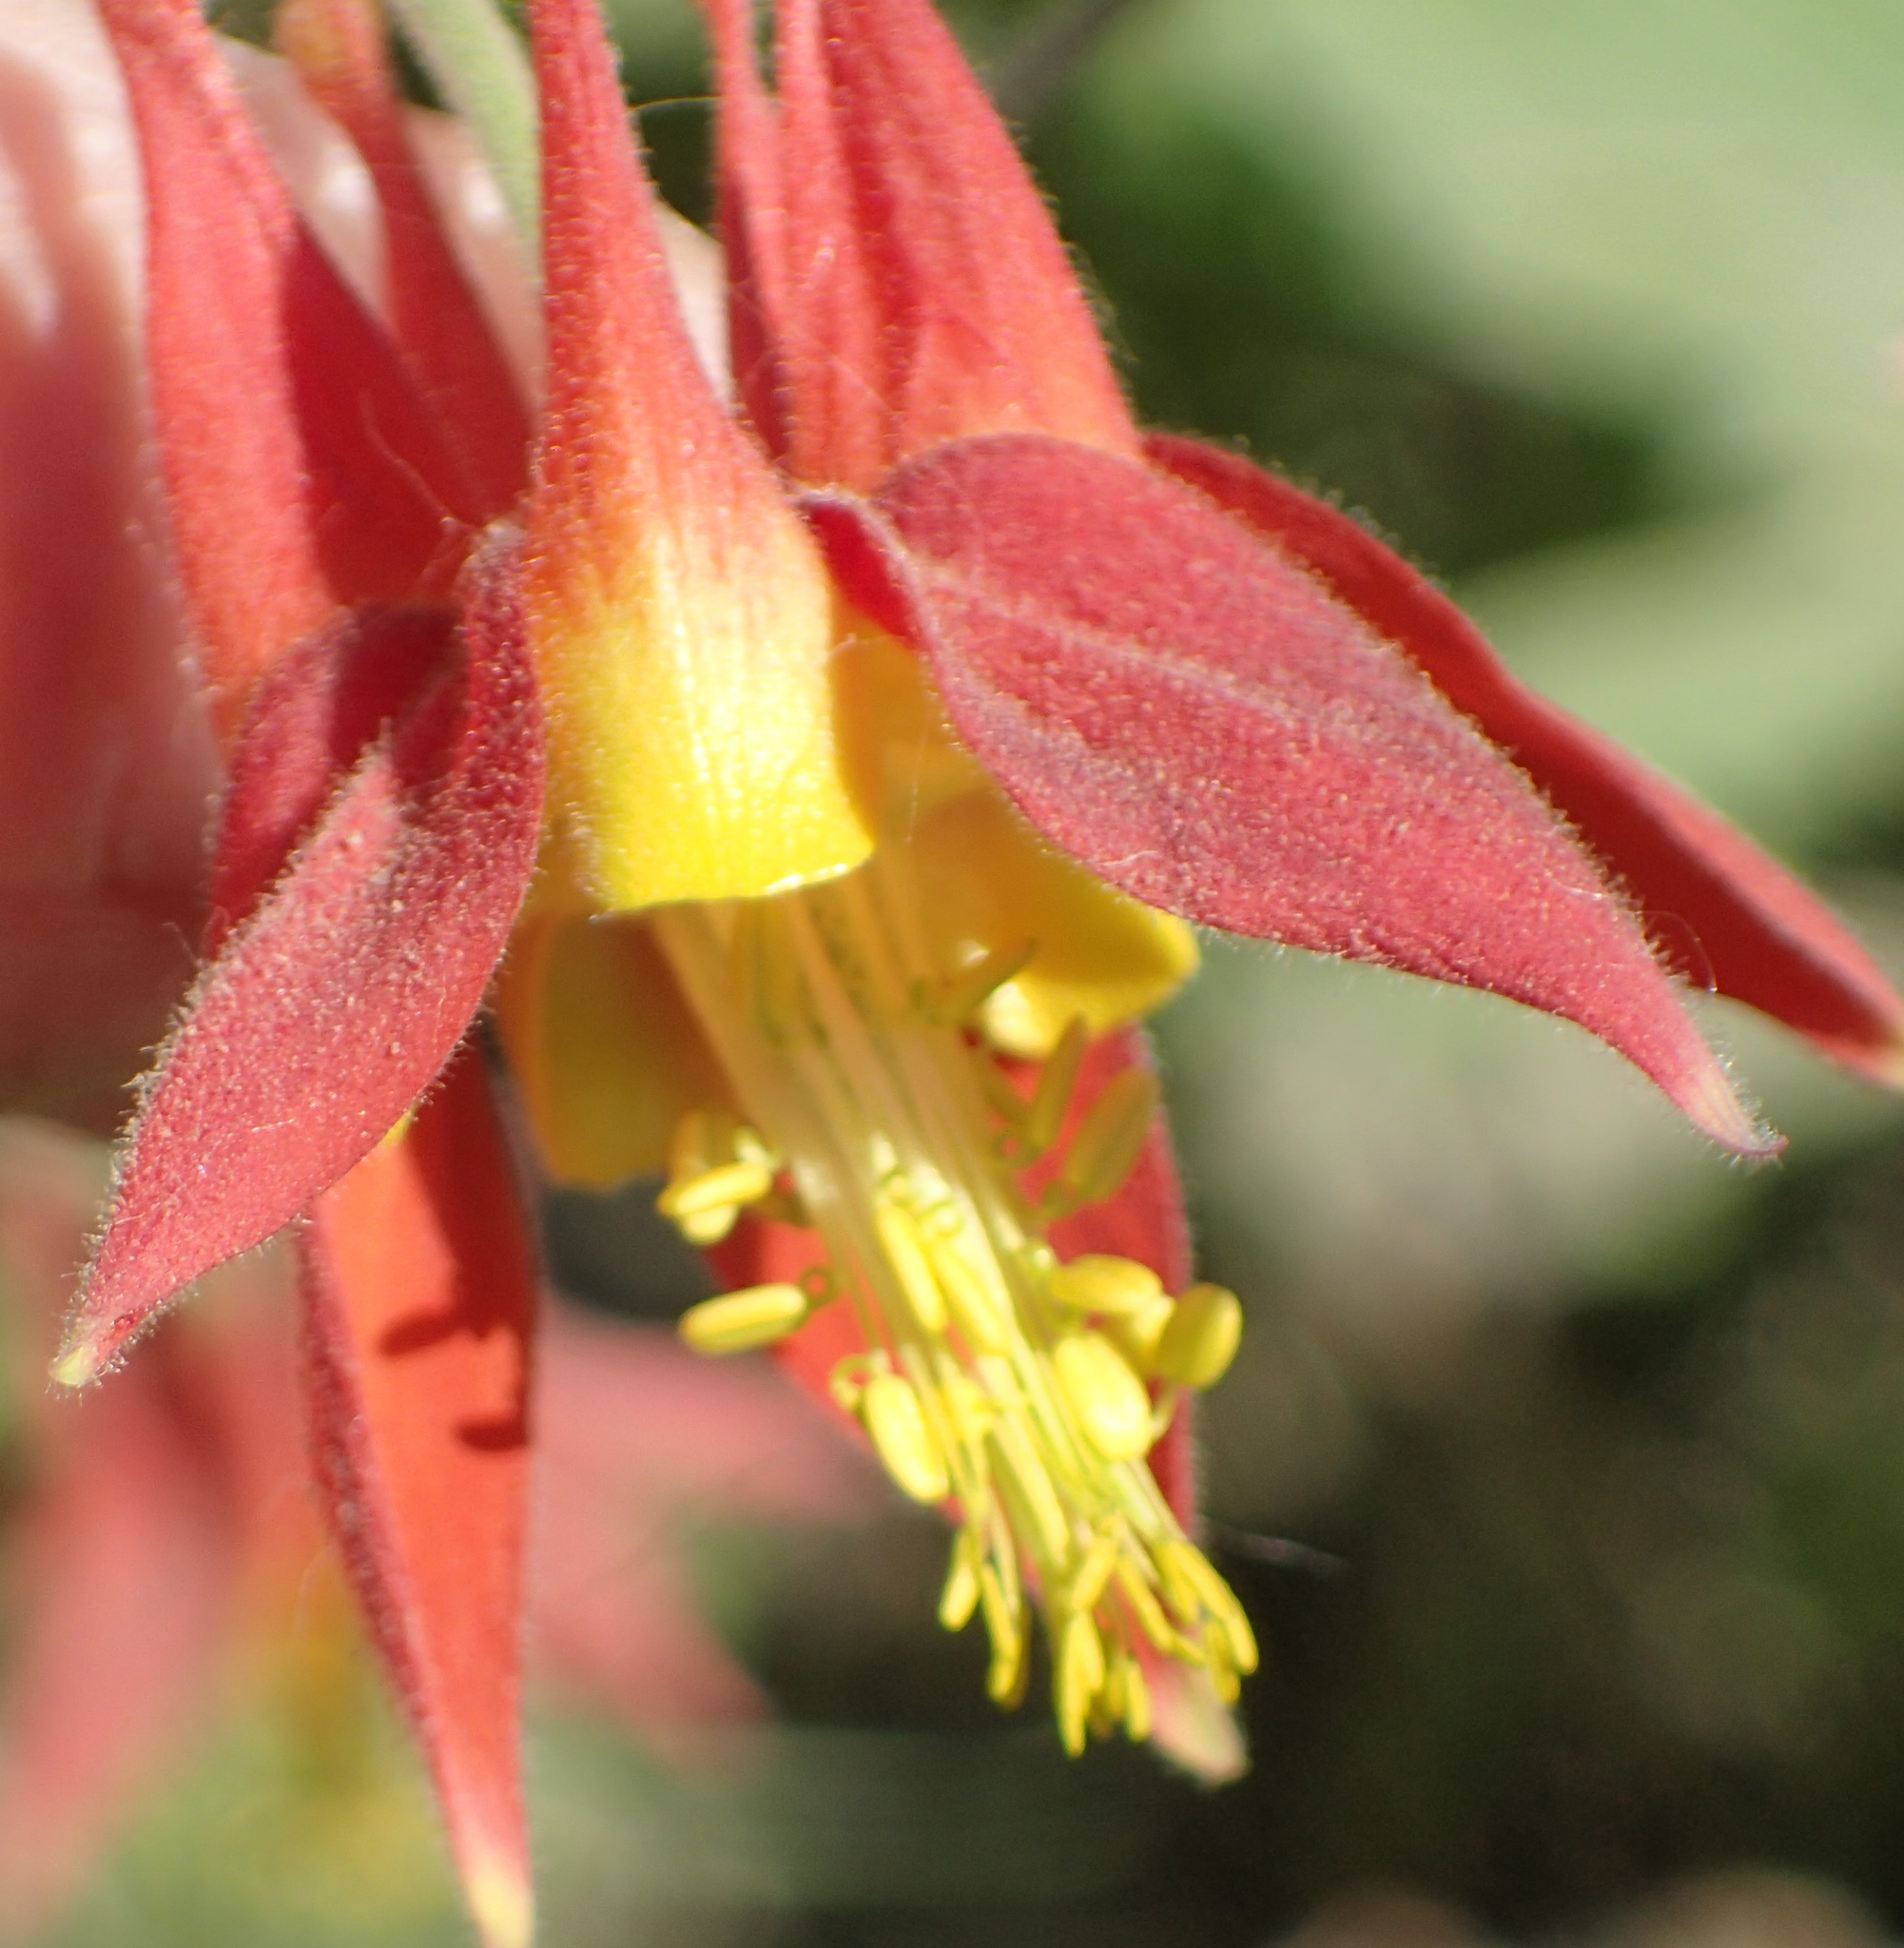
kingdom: Plantae
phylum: Tracheophyta
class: Magnoliopsida
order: Ranunculales
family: Ranunculaceae
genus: Aquilegia
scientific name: Aquilegia formosa
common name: Sitka columbine
